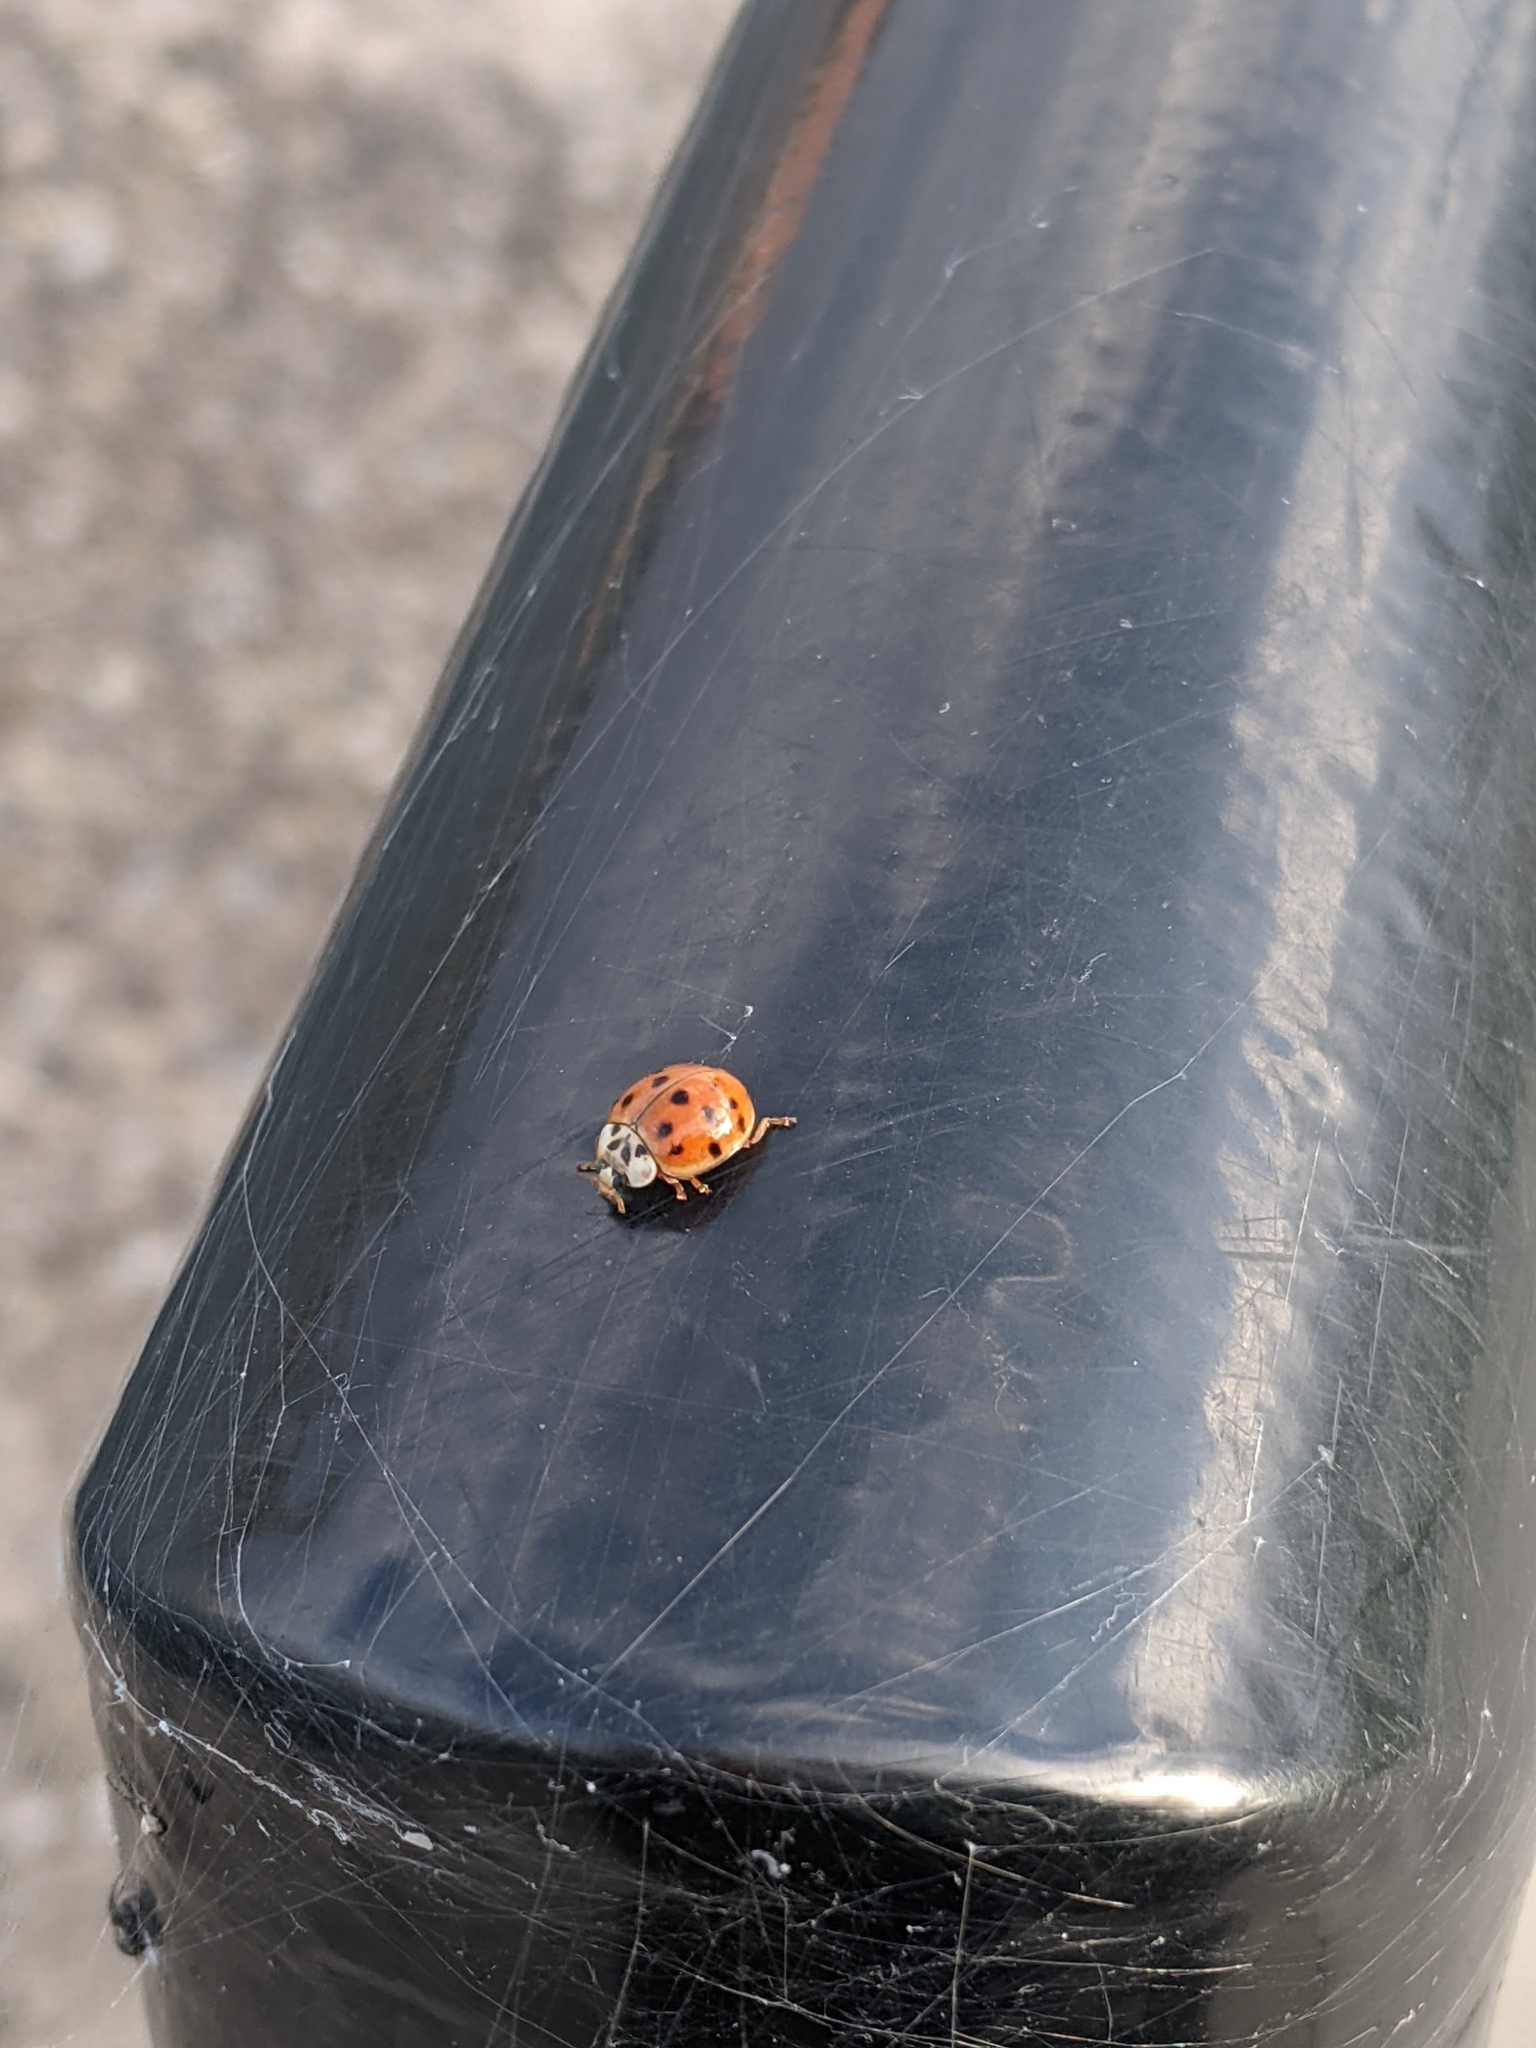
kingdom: Animalia
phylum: Arthropoda
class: Insecta
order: Coleoptera
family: Coccinellidae
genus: Harmonia
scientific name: Harmonia axyridis
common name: Harlequin ladybird
